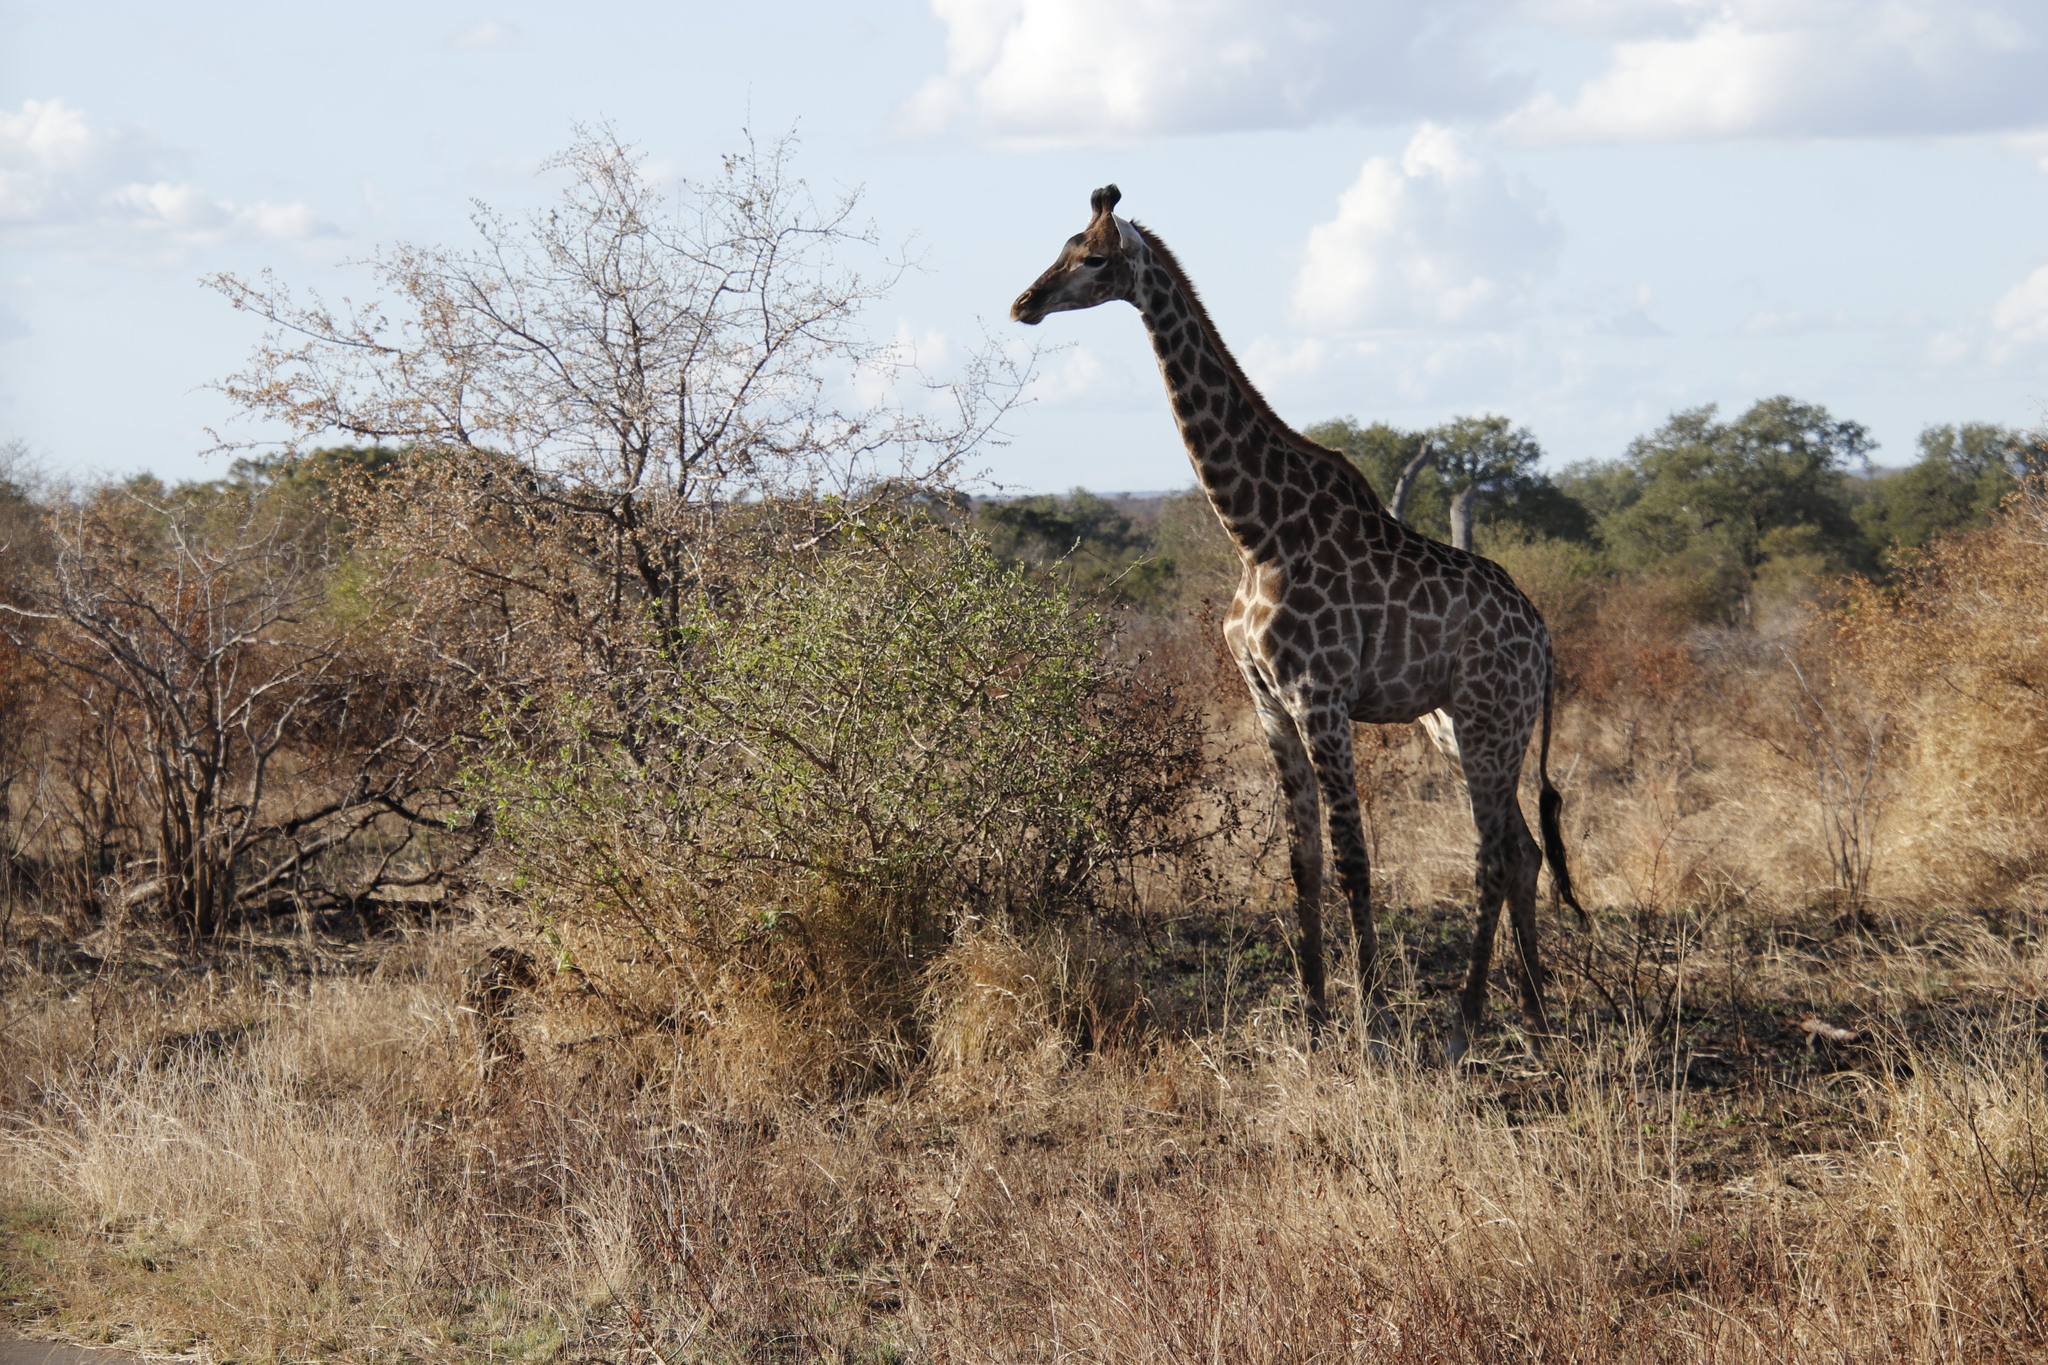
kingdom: Animalia
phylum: Chordata
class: Mammalia
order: Artiodactyla
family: Giraffidae
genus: Giraffa
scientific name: Giraffa giraffa
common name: Southern giraffe
